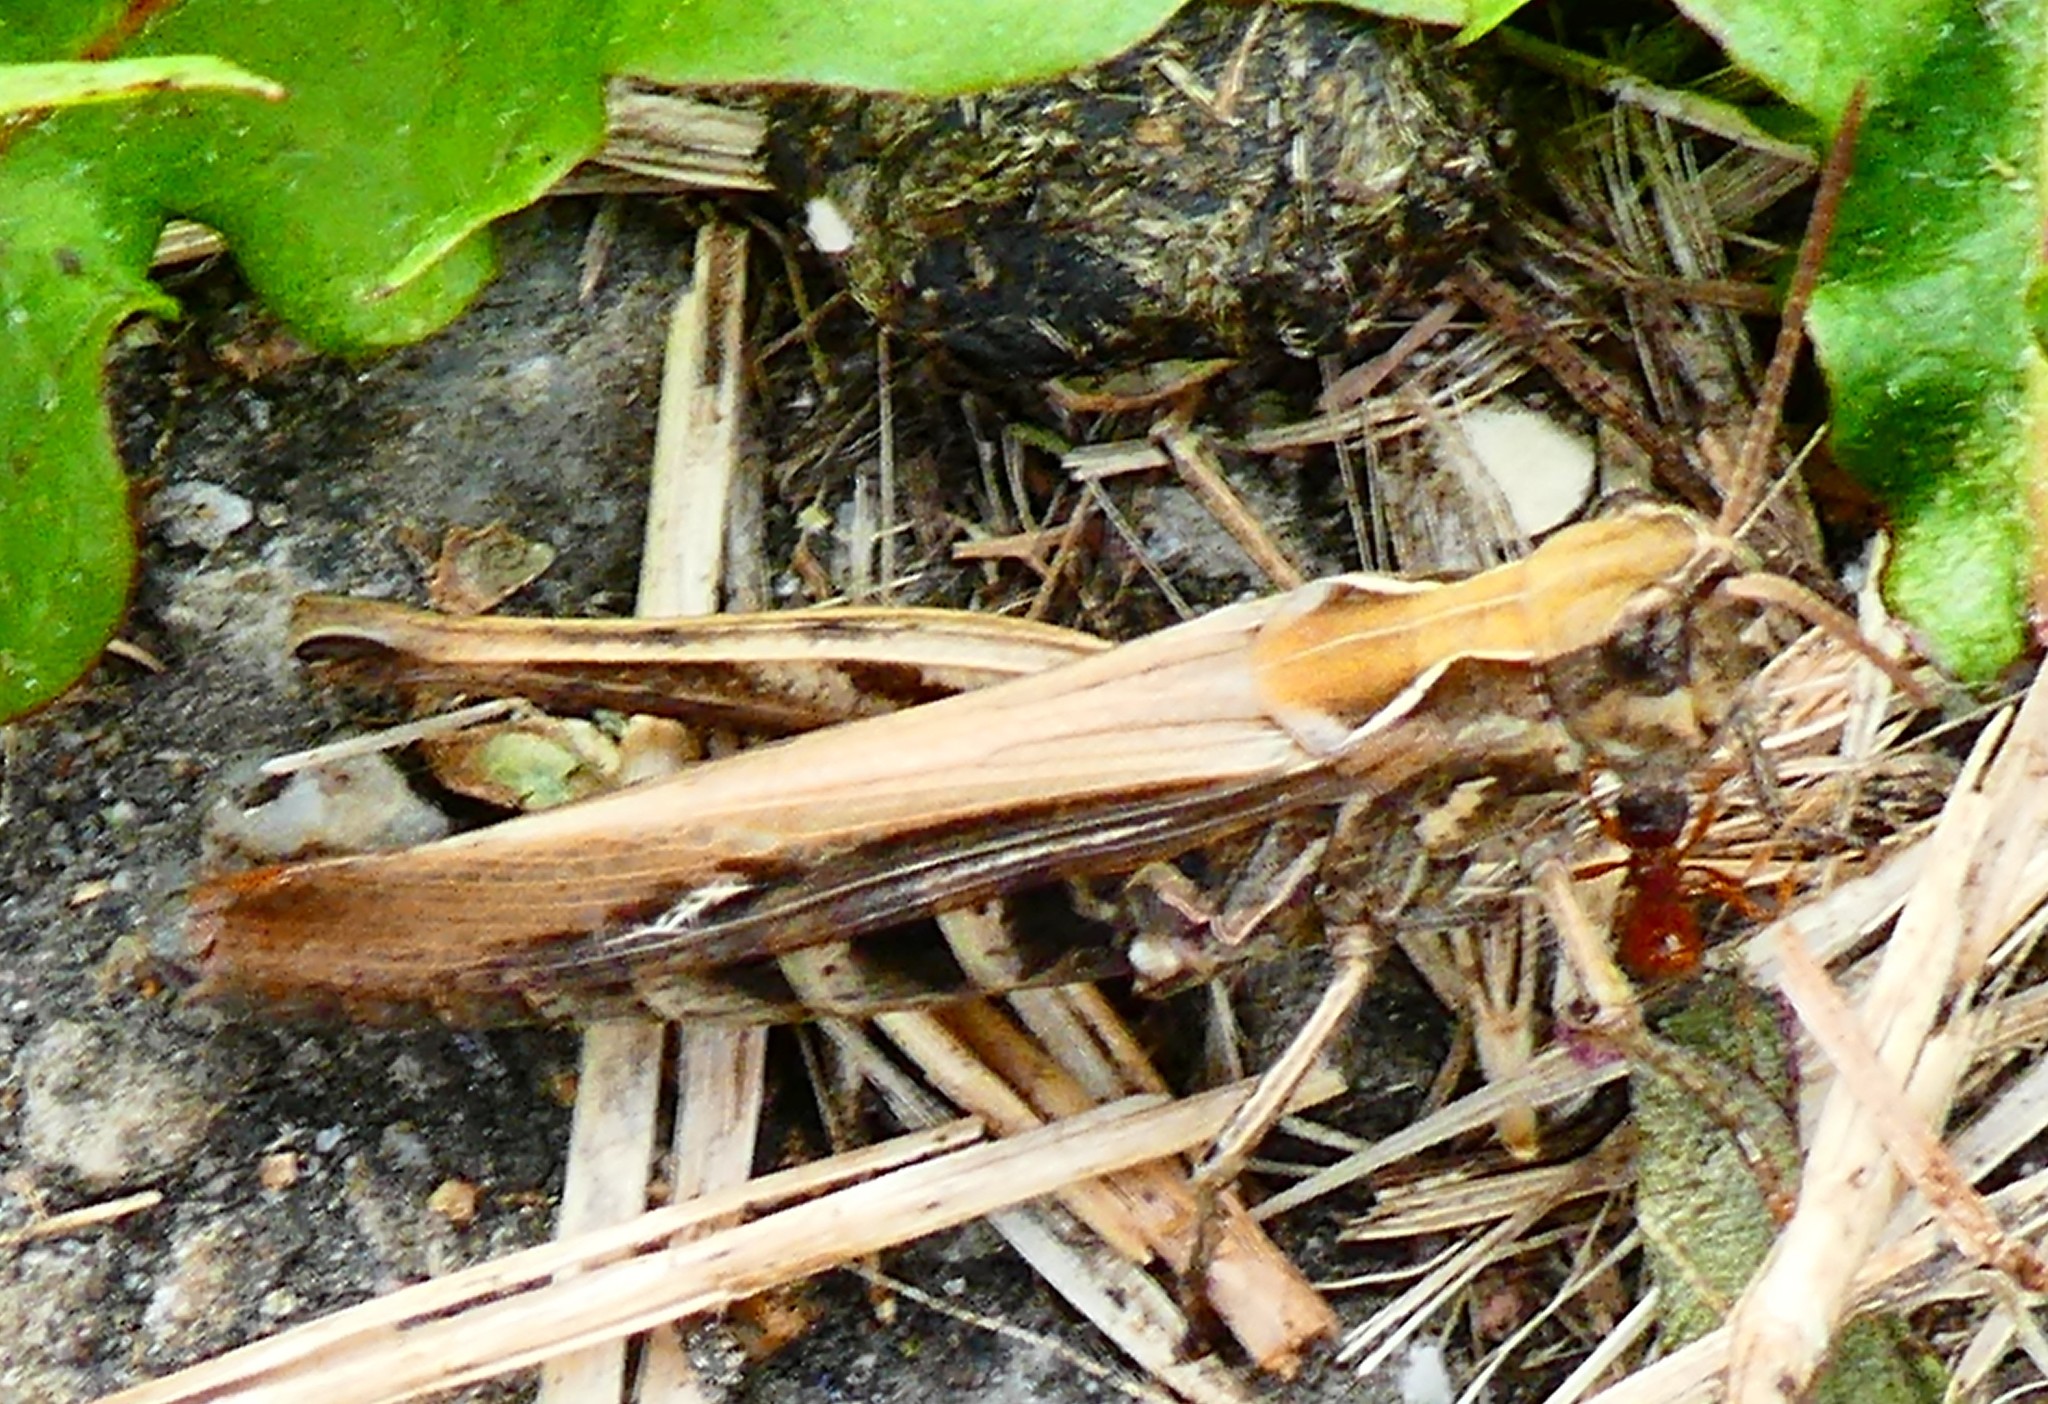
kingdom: Animalia
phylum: Arthropoda
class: Insecta
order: Orthoptera
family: Acrididae
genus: Chorthippus
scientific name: Chorthippus brunneus
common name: Field grasshopper
